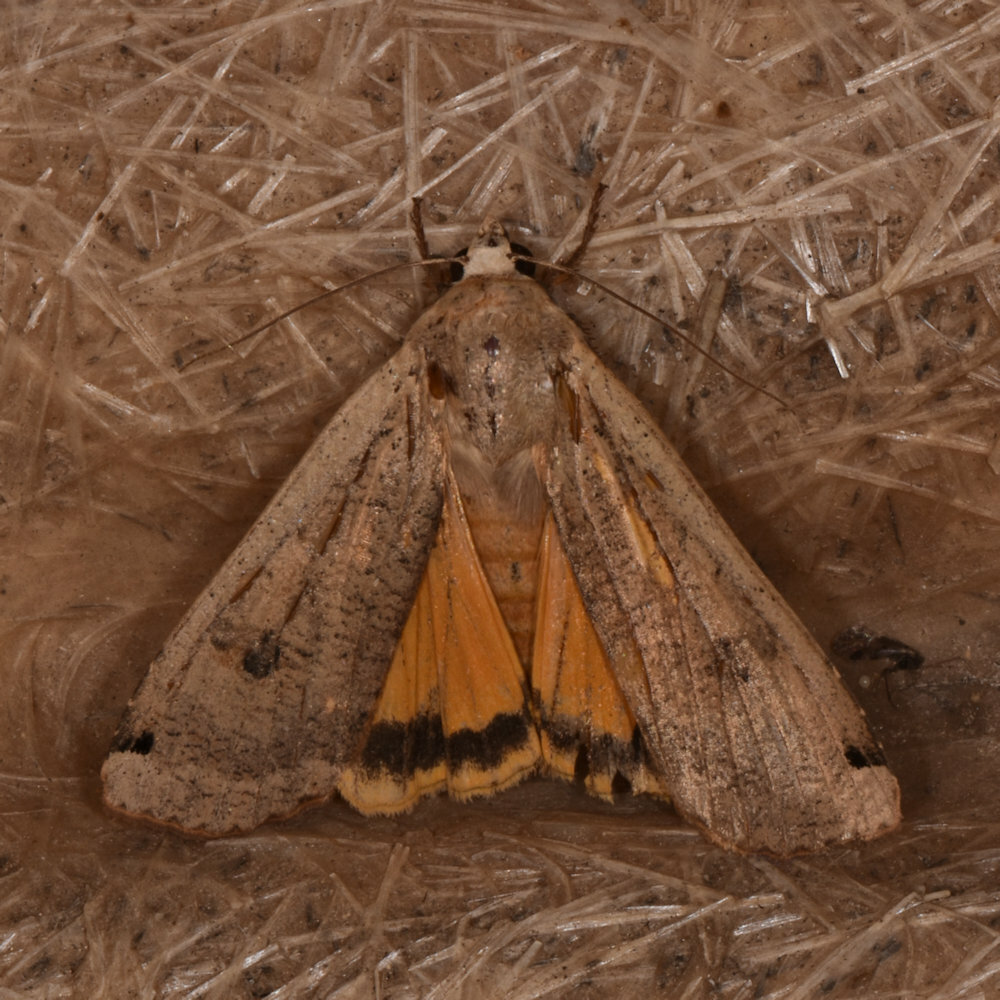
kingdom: Animalia
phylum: Arthropoda
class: Insecta
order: Lepidoptera
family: Noctuidae
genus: Noctua
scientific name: Noctua pronuba
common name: Large yellow underwing
